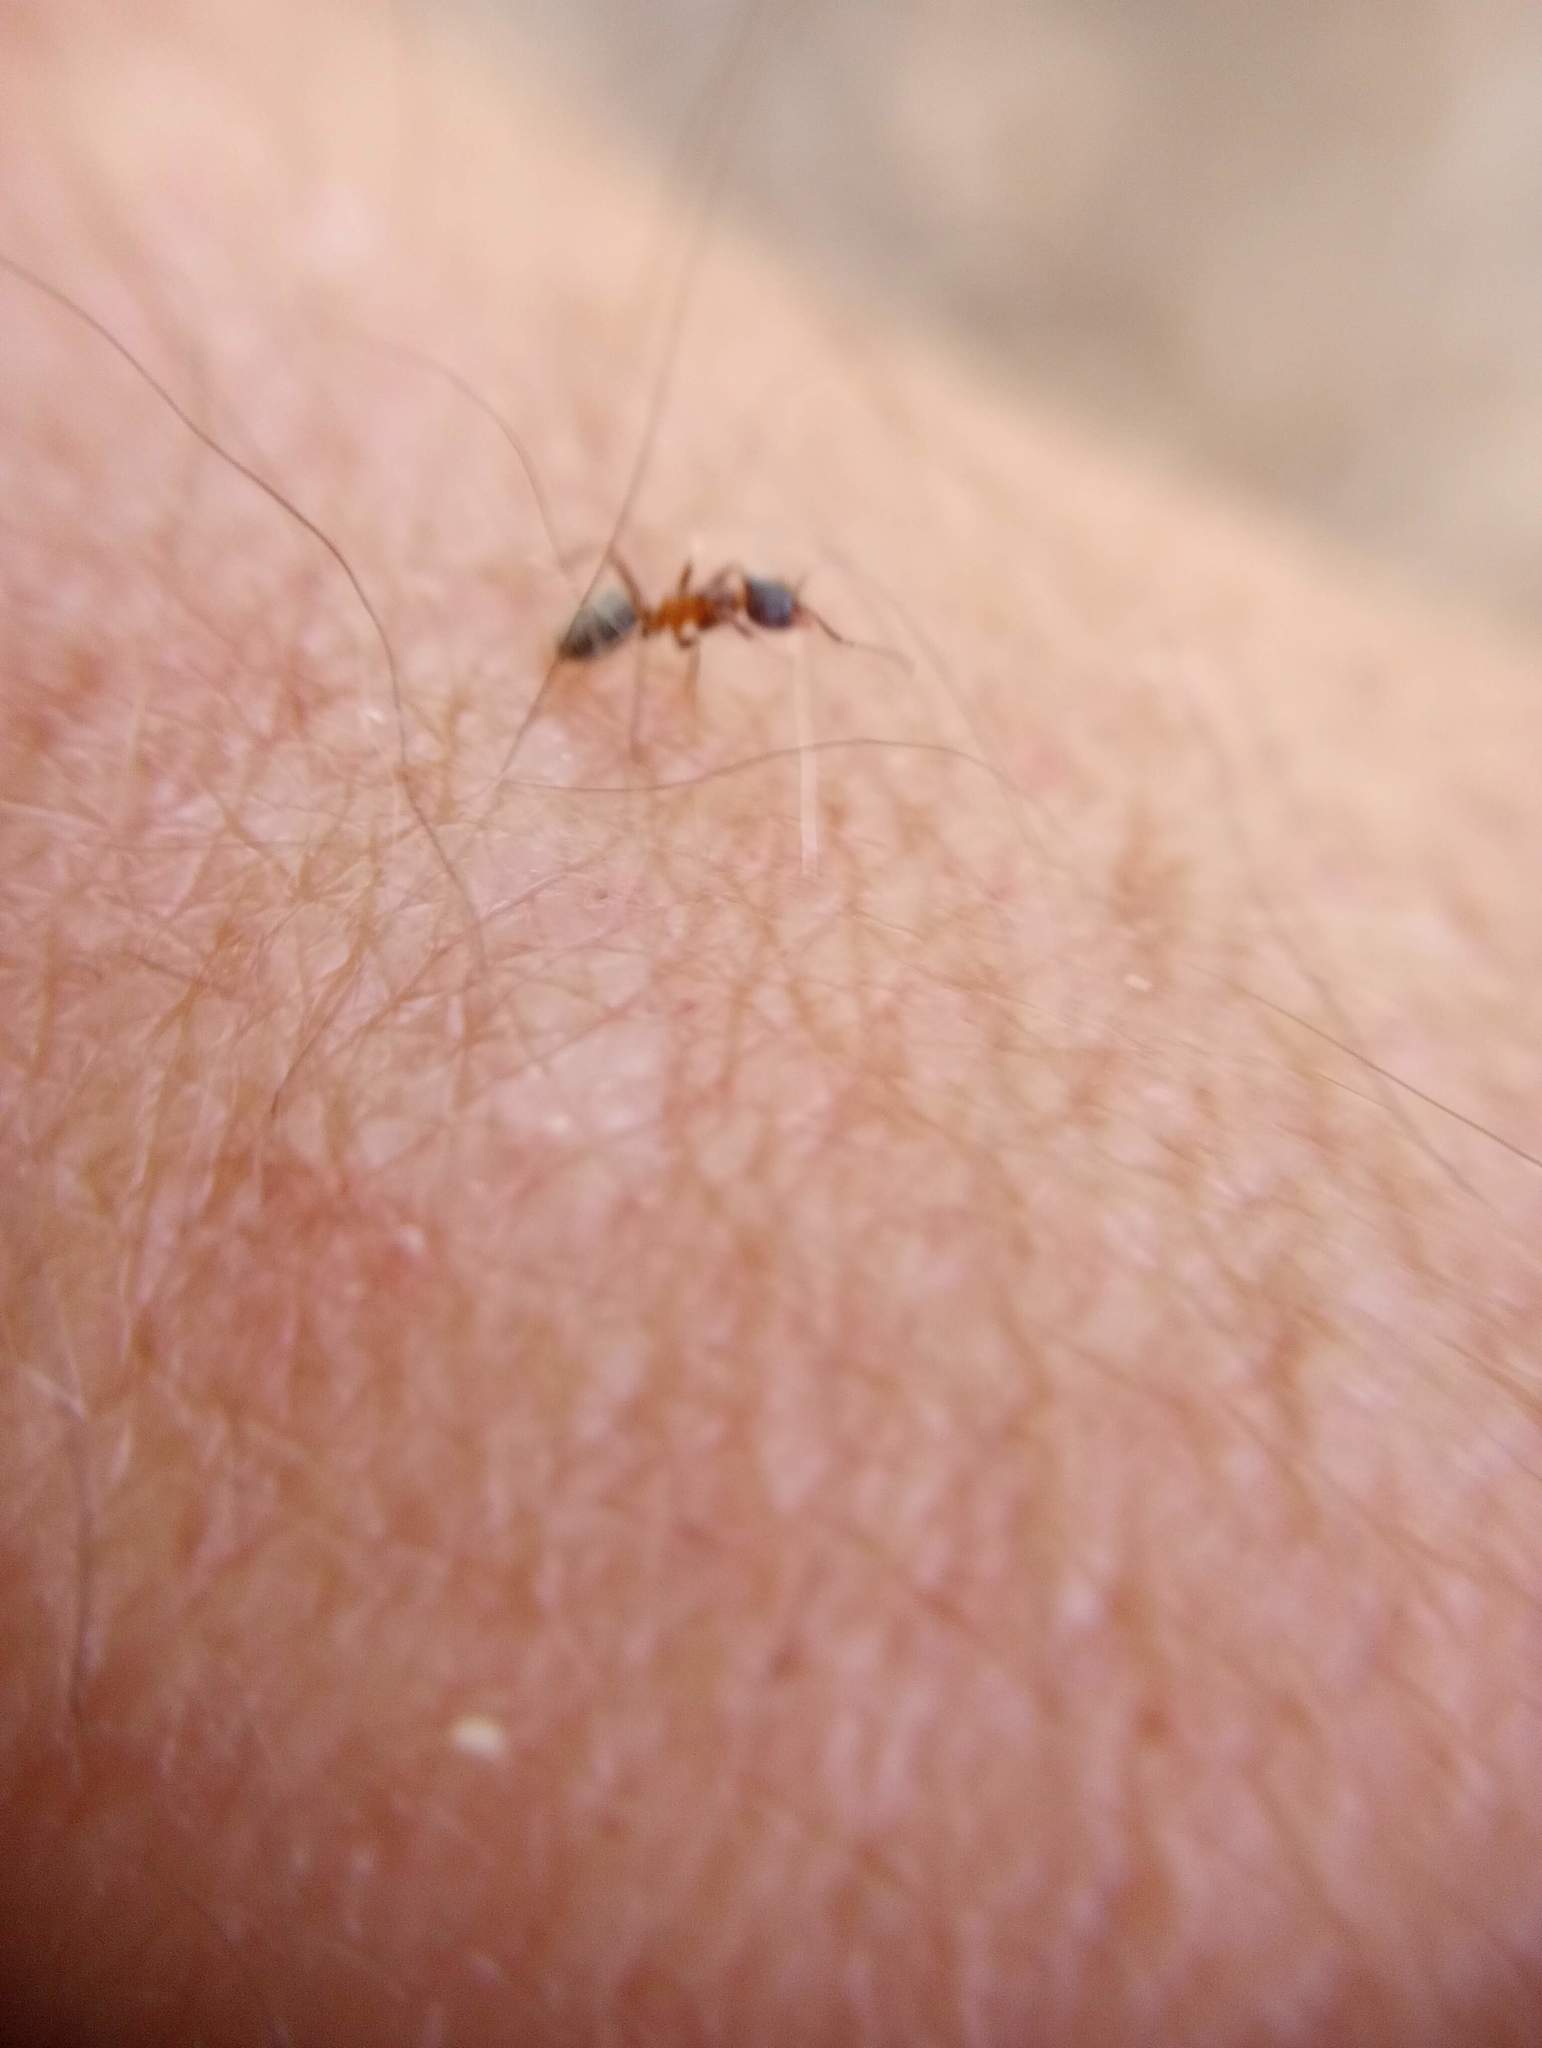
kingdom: Animalia
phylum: Arthropoda
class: Insecta
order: Hymenoptera
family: Formicidae
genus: Liometopum
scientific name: Liometopum occidentale
